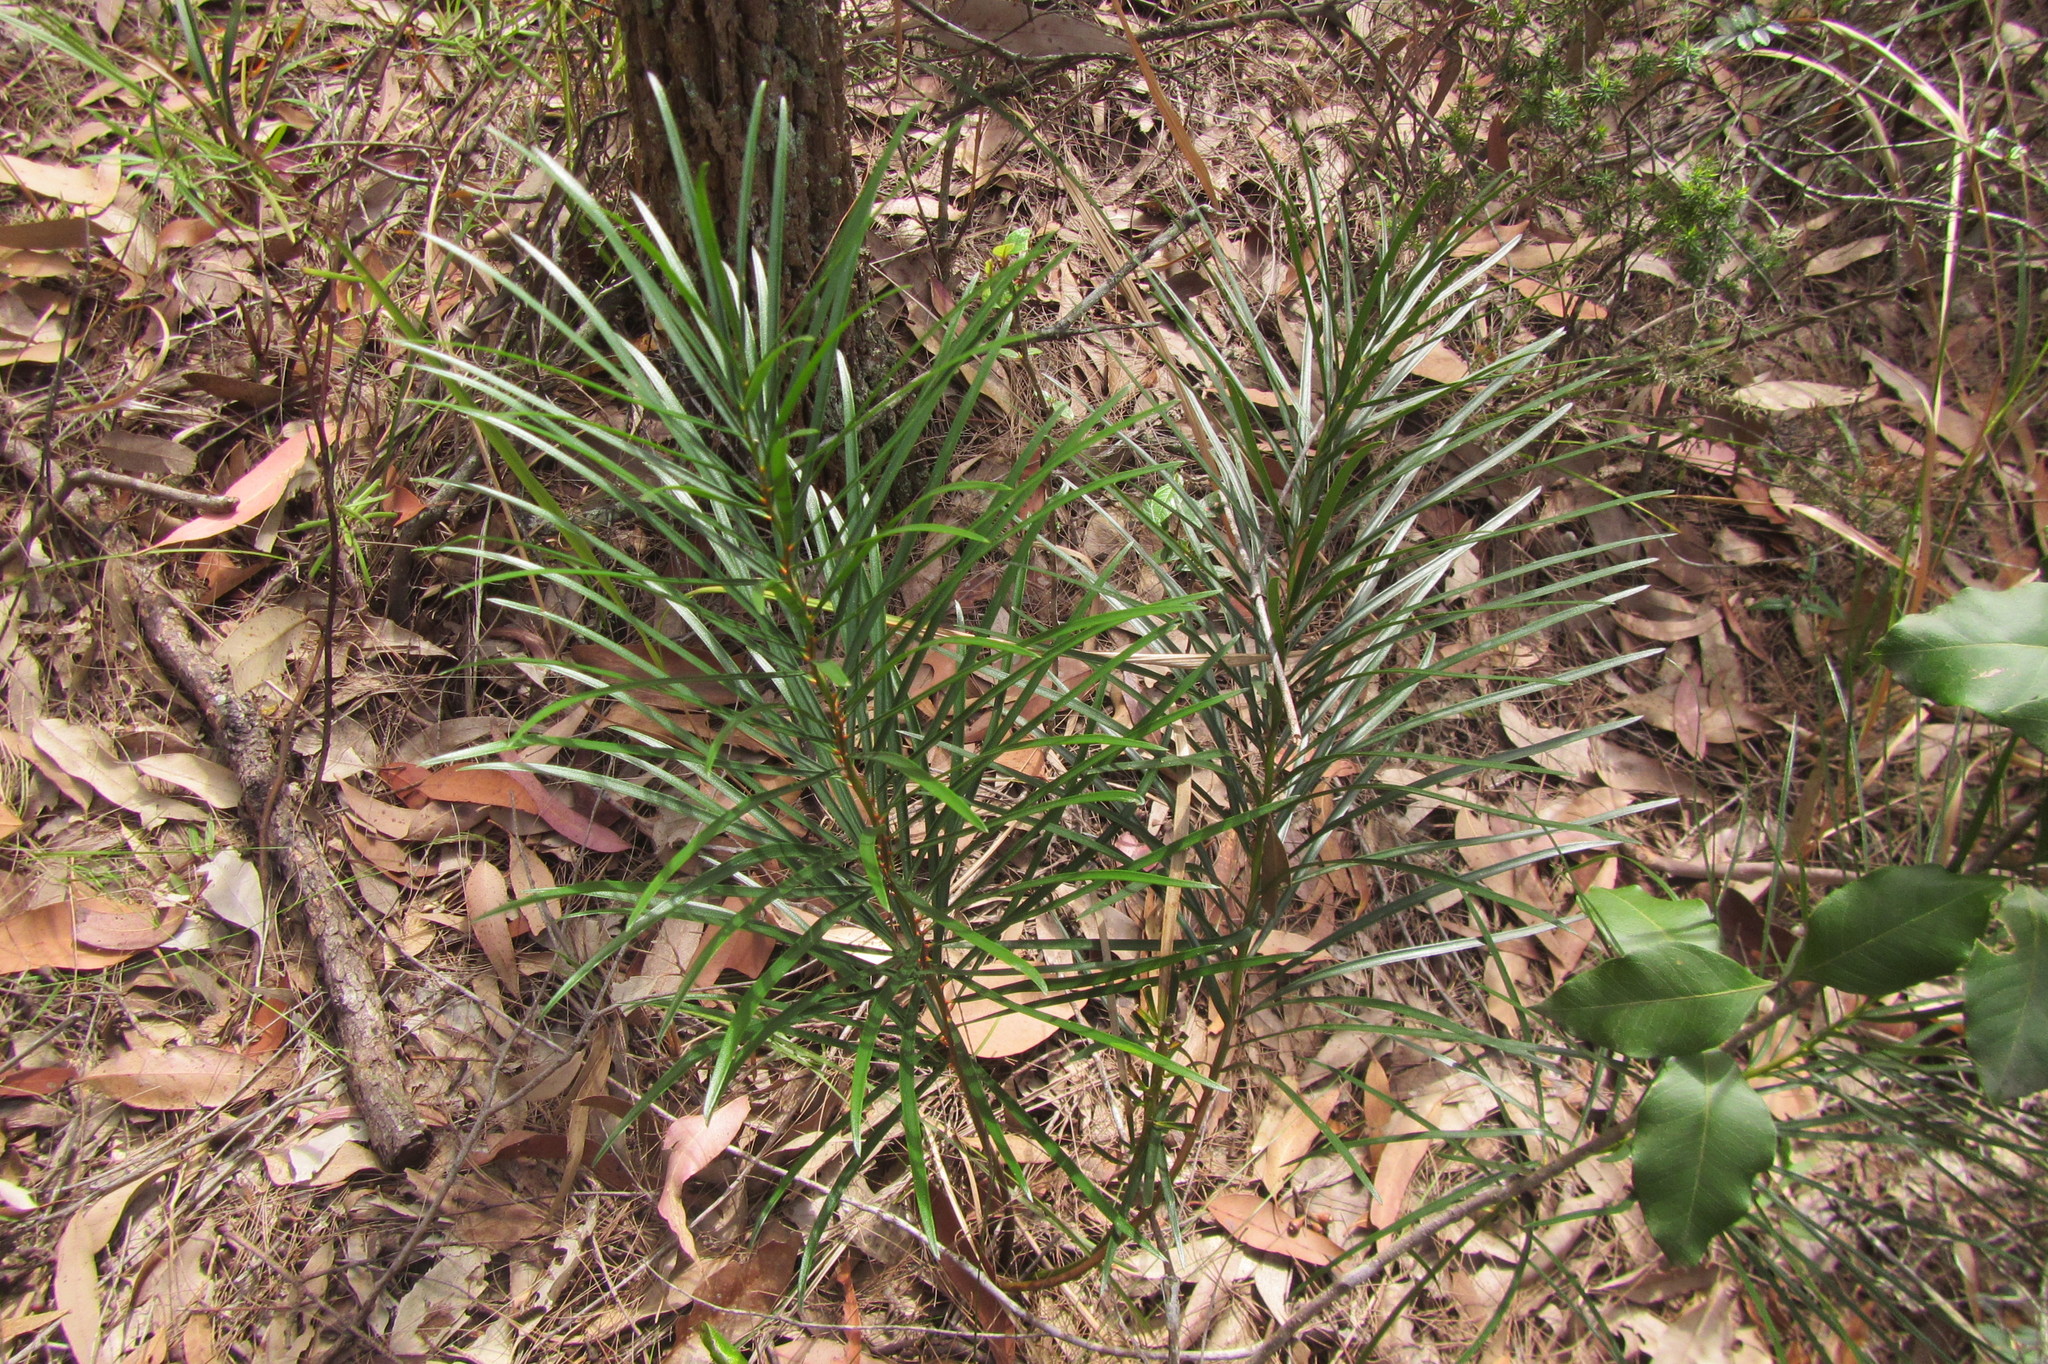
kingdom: Plantae
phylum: Tracheophyta
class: Cycadopsida
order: Cycadales
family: Zamiaceae
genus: Macrozamia
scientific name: Macrozamia flexuosa
